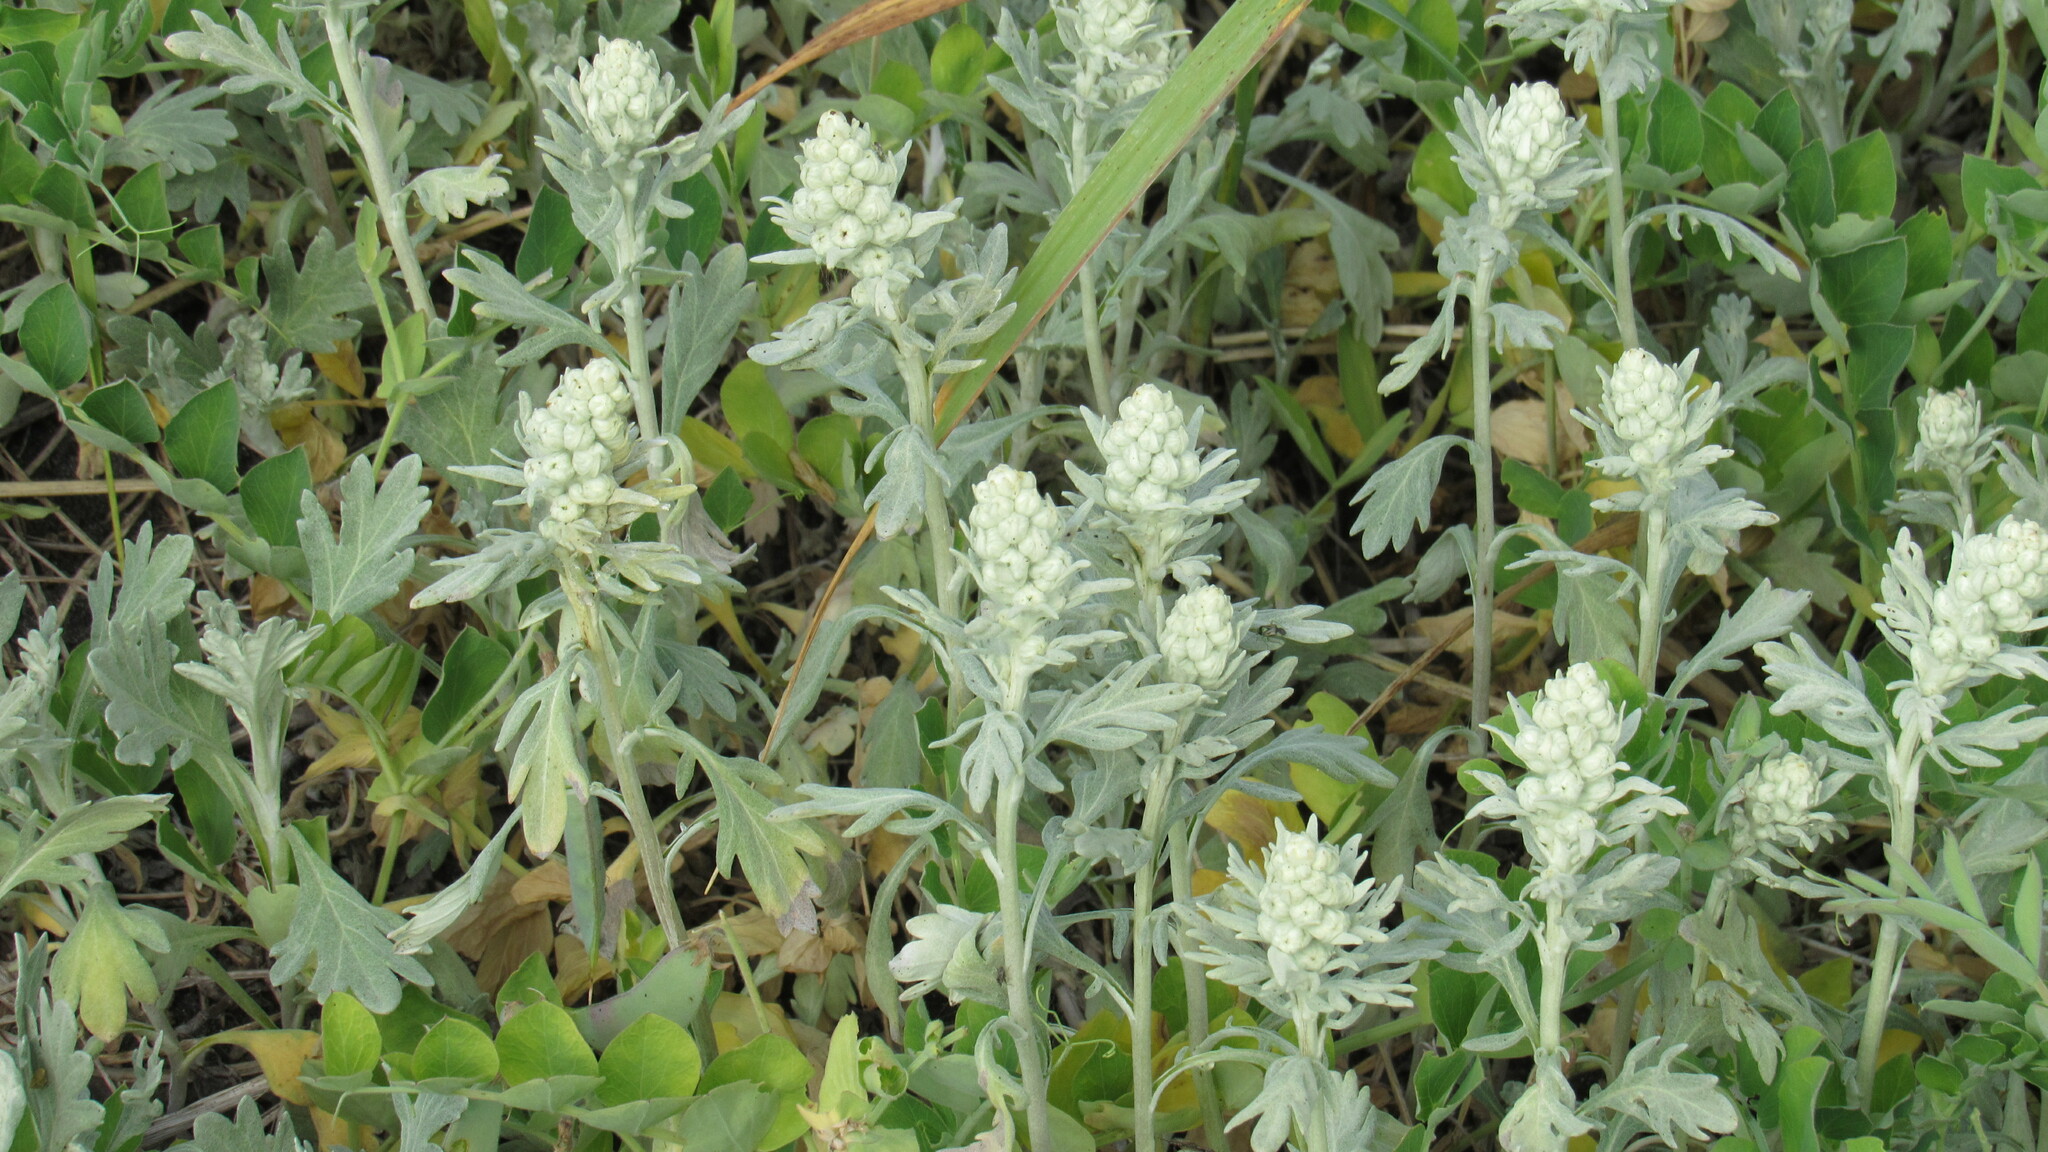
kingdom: Plantae
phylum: Tracheophyta
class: Magnoliopsida
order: Asterales
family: Asteraceae
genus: Artemisia
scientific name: Artemisia stelleriana
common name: Beach wormwood
